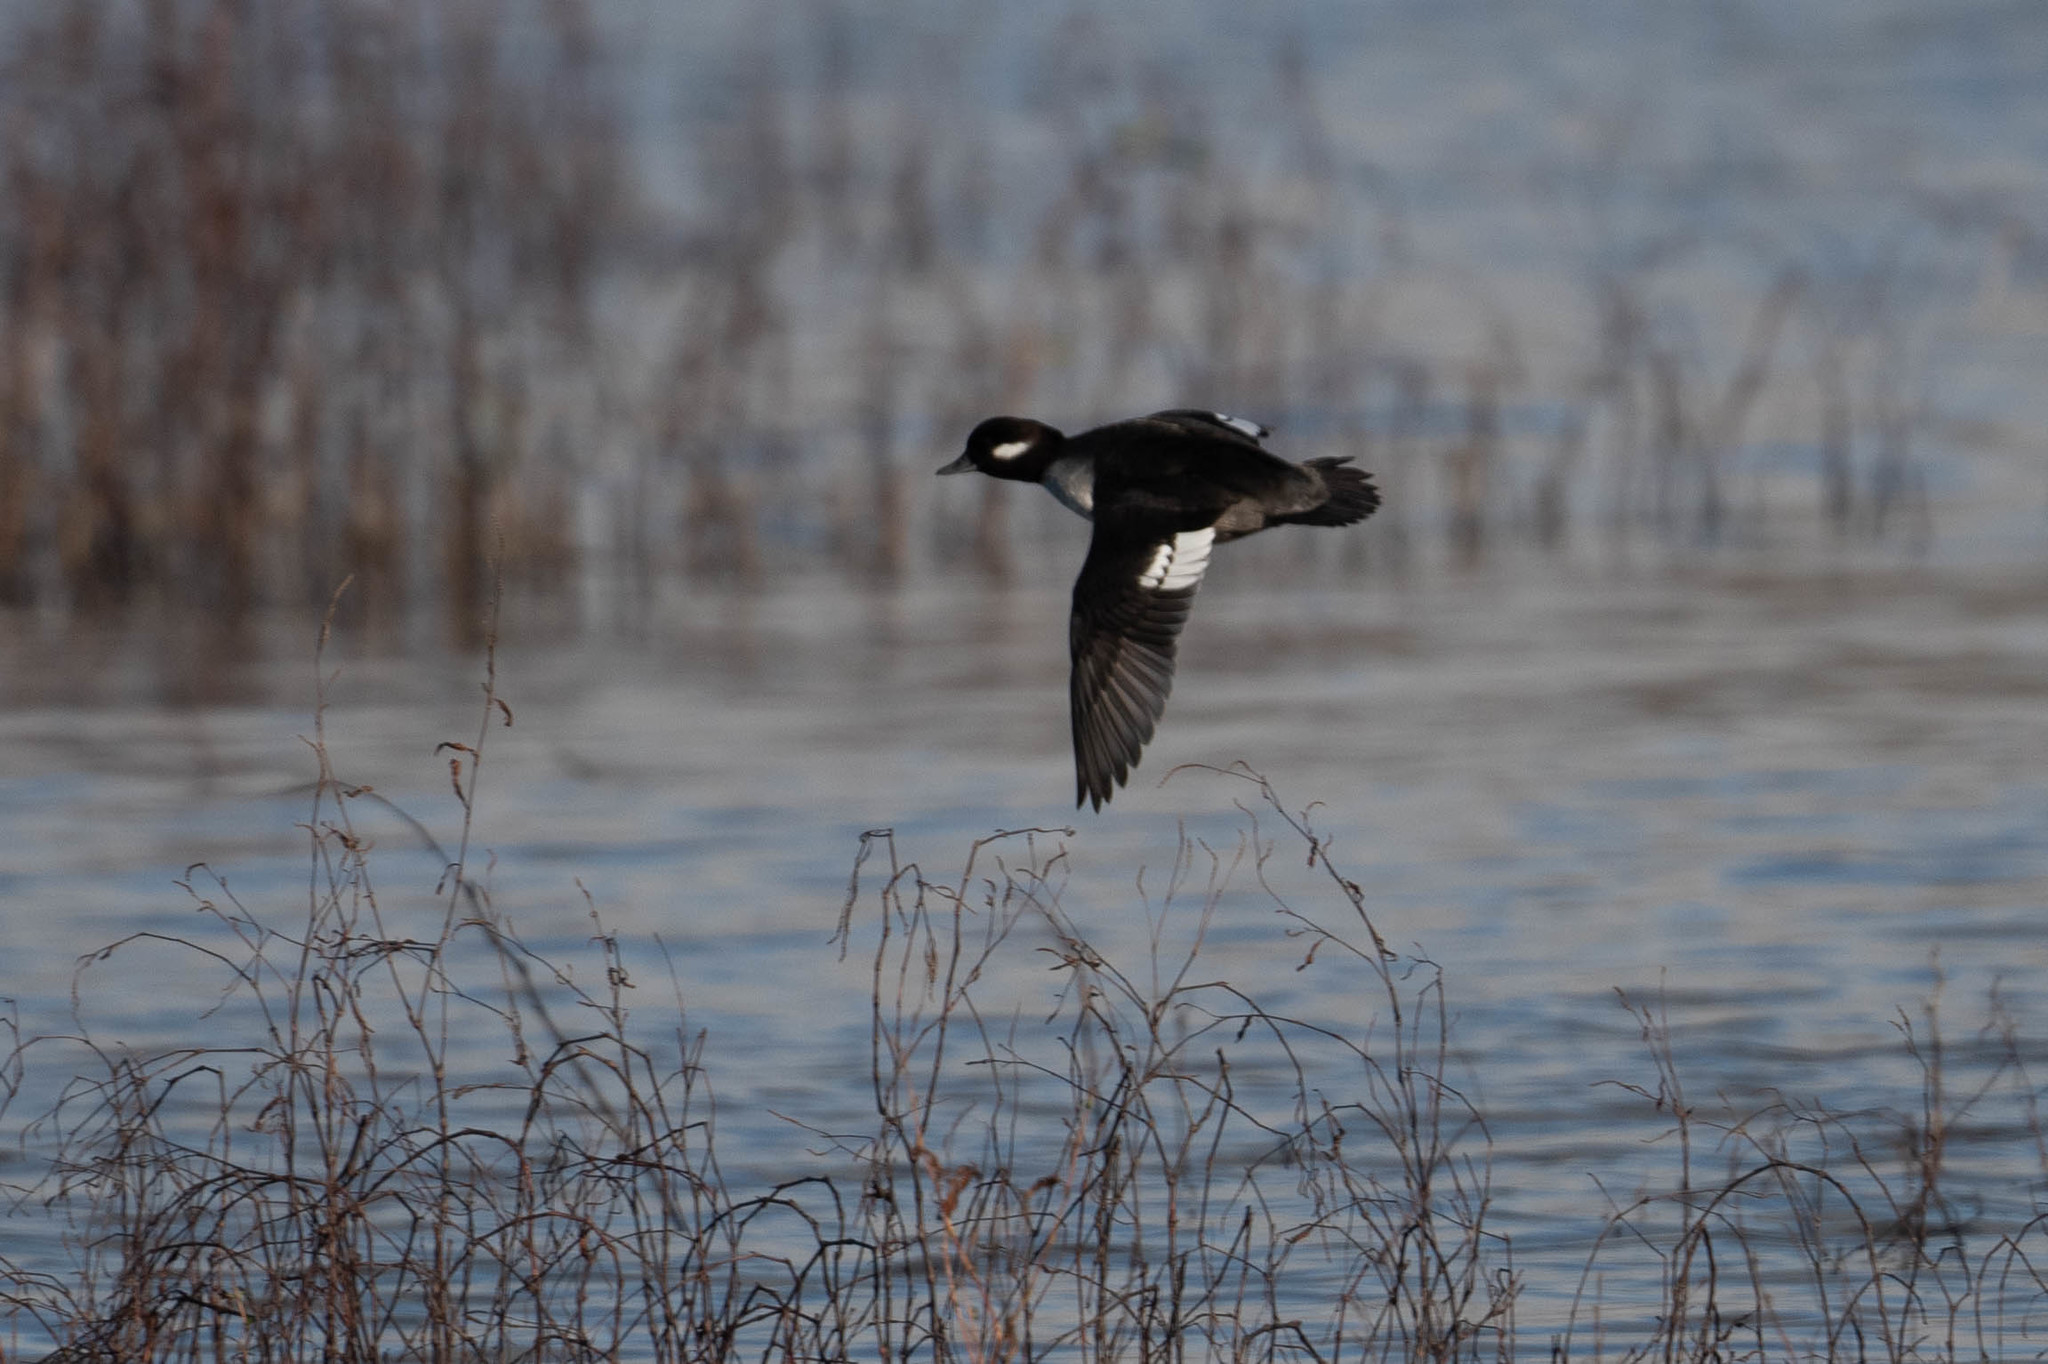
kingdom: Animalia
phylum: Chordata
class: Aves
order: Anseriformes
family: Anatidae
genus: Bucephala
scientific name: Bucephala albeola
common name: Bufflehead
